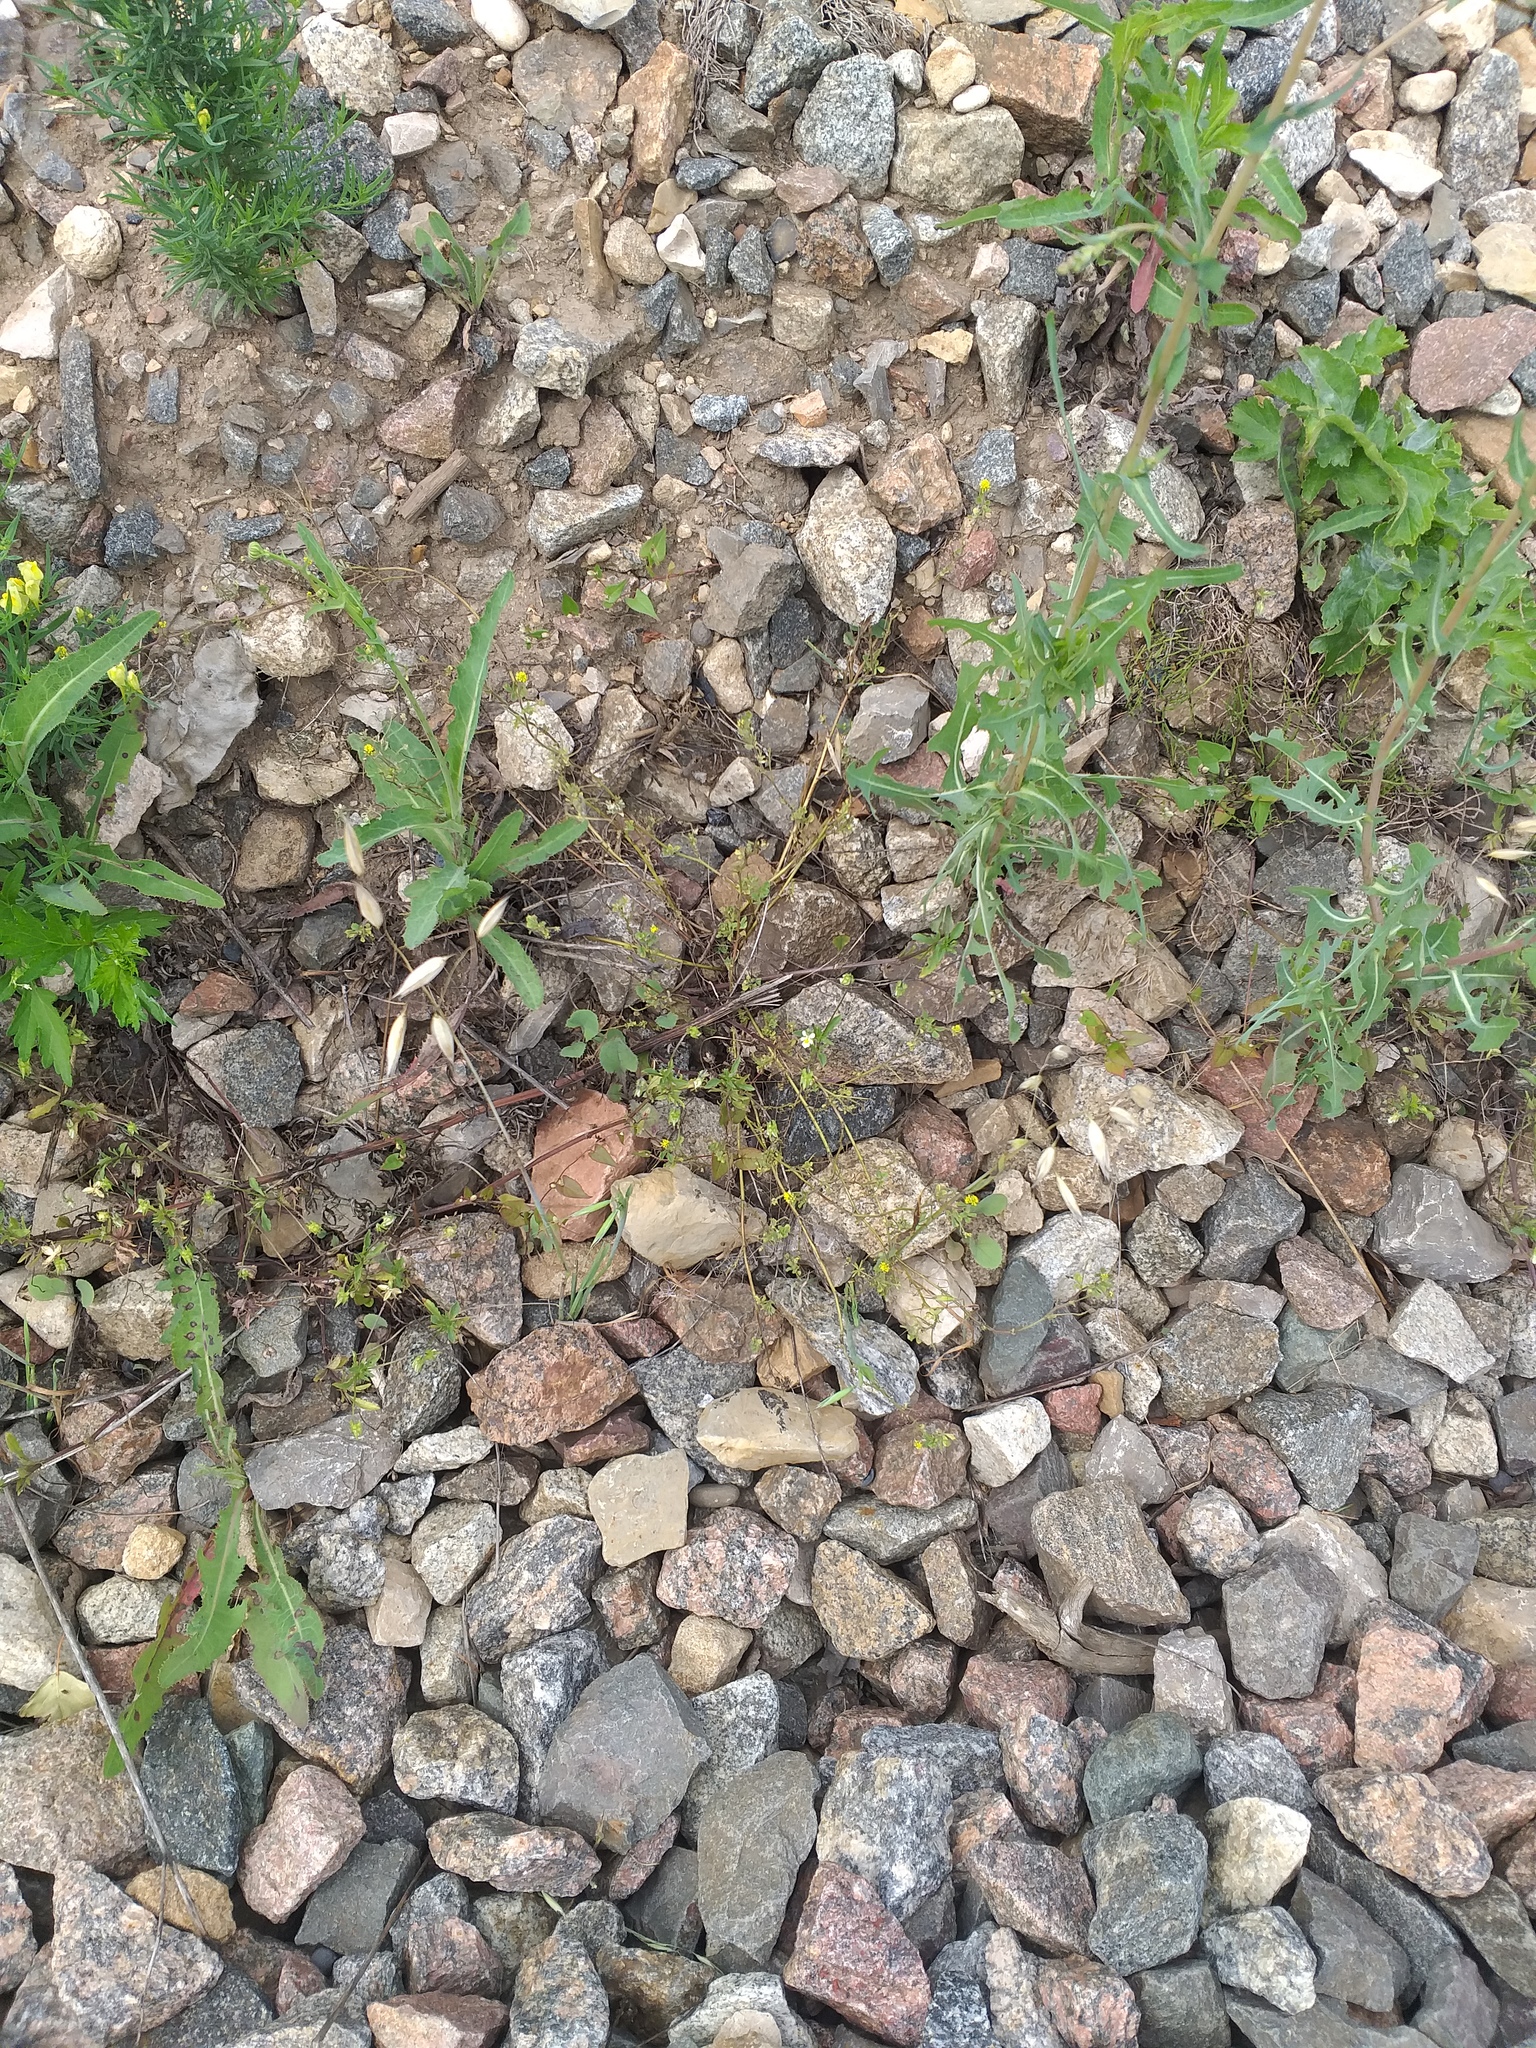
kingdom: Plantae
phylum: Tracheophyta
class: Magnoliopsida
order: Fabales
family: Fabaceae
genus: Medicago
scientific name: Medicago lupulina
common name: Black medick
